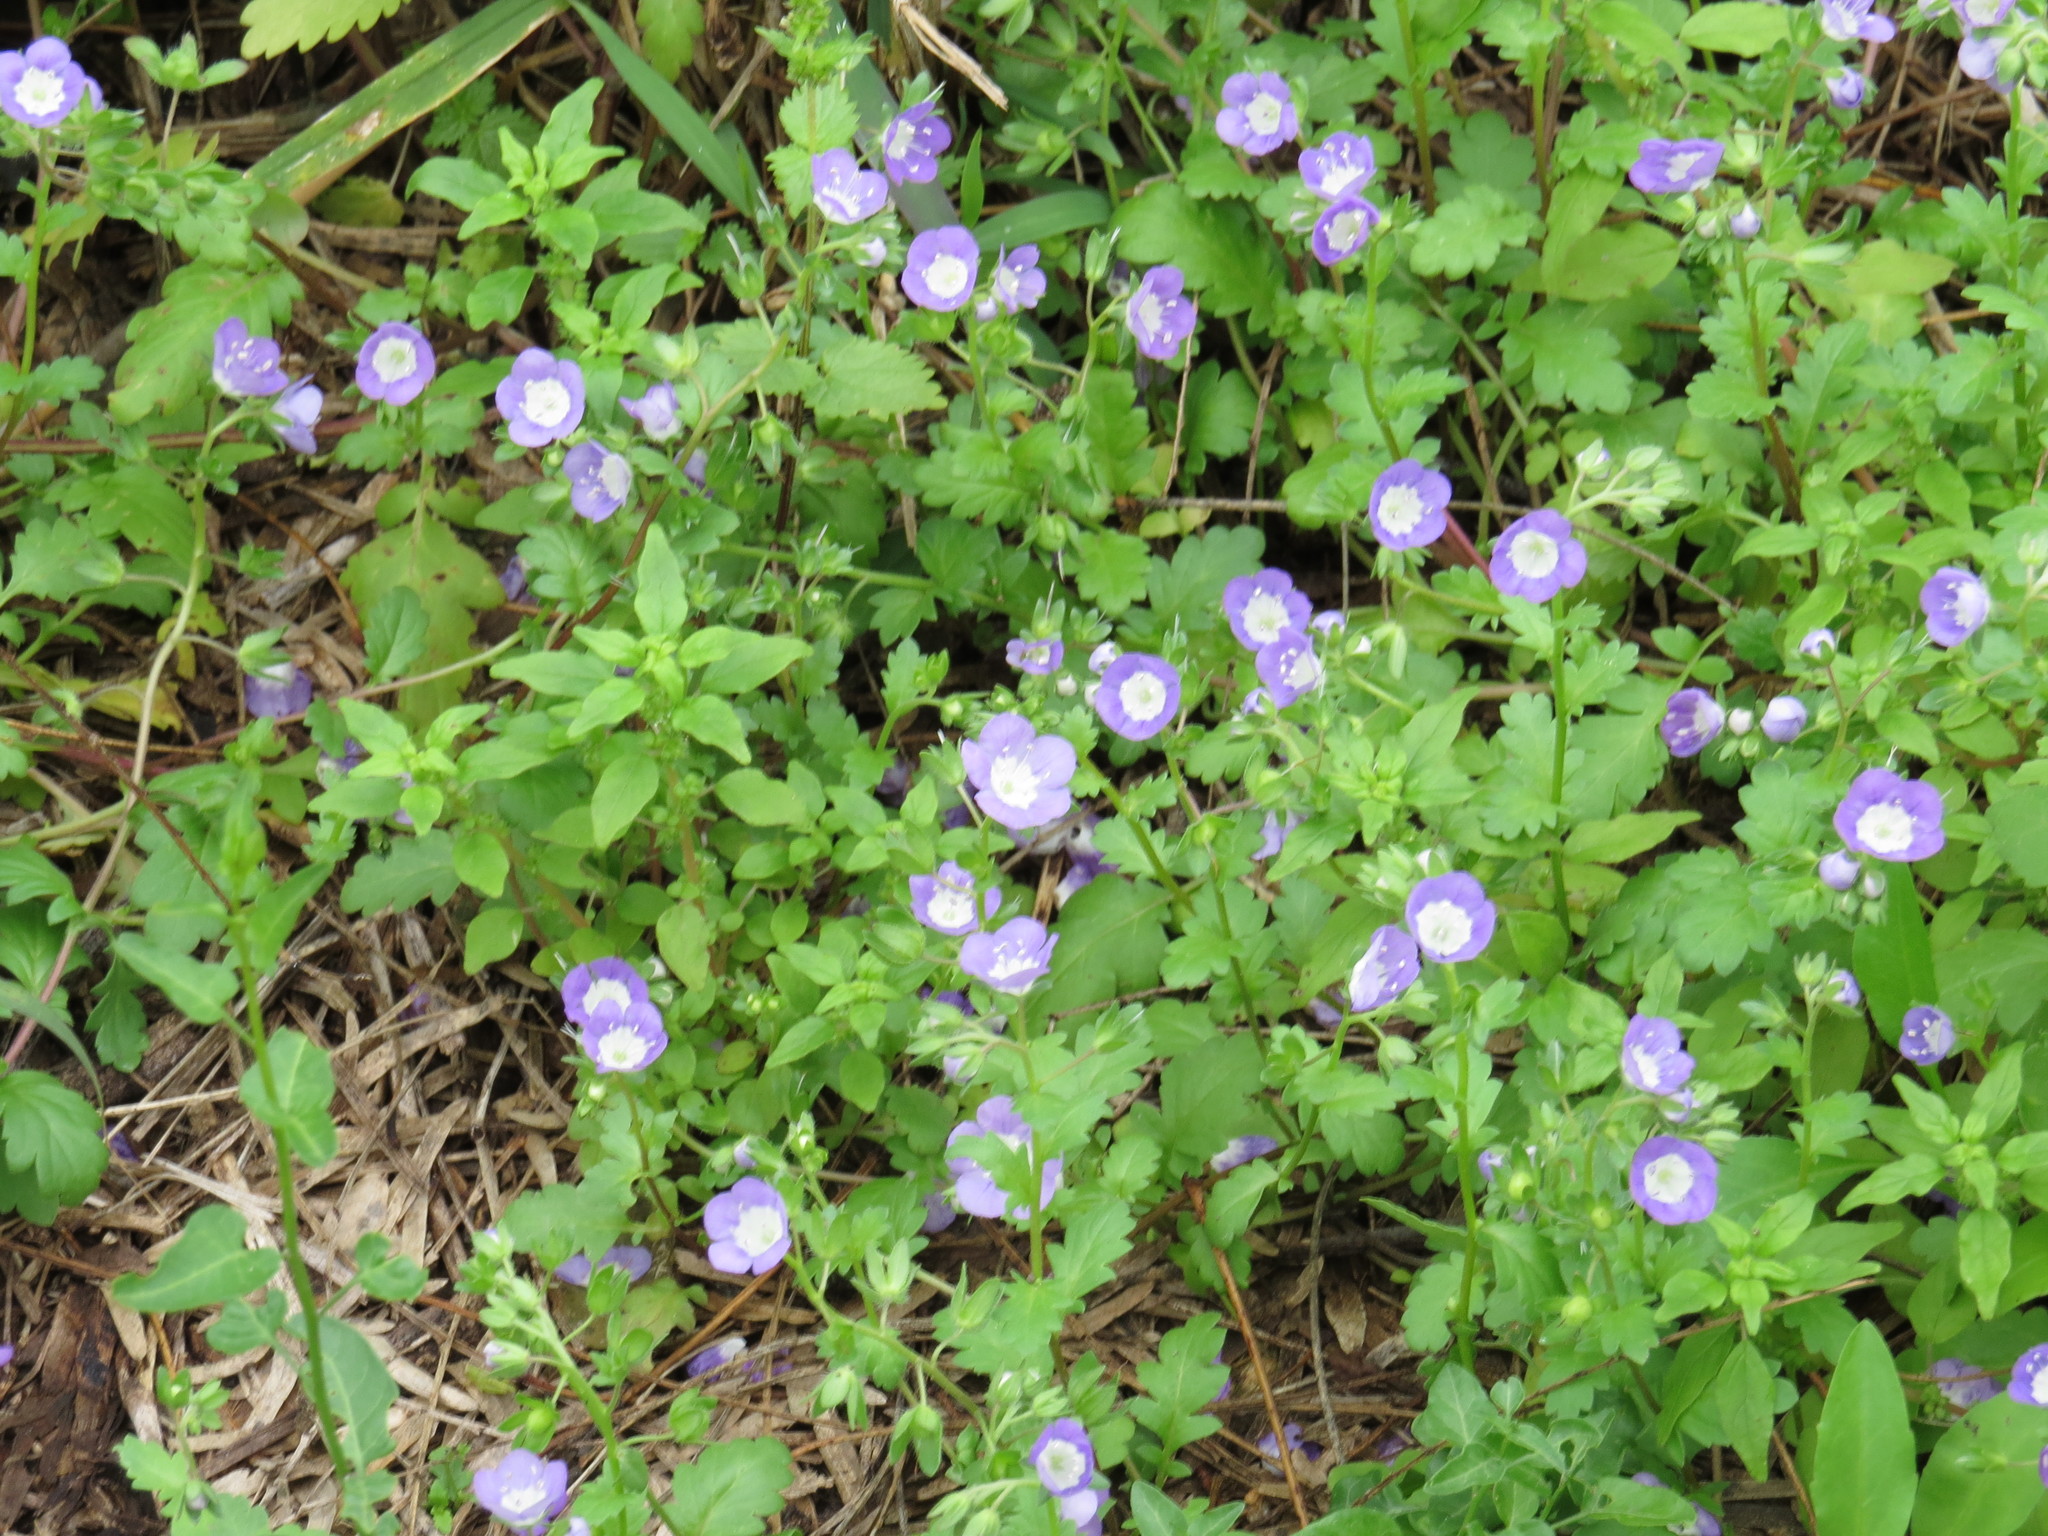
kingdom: Plantae
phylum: Tracheophyta
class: Magnoliopsida
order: Boraginales
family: Hydrophyllaceae
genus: Phacelia
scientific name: Phacelia patuliflora
